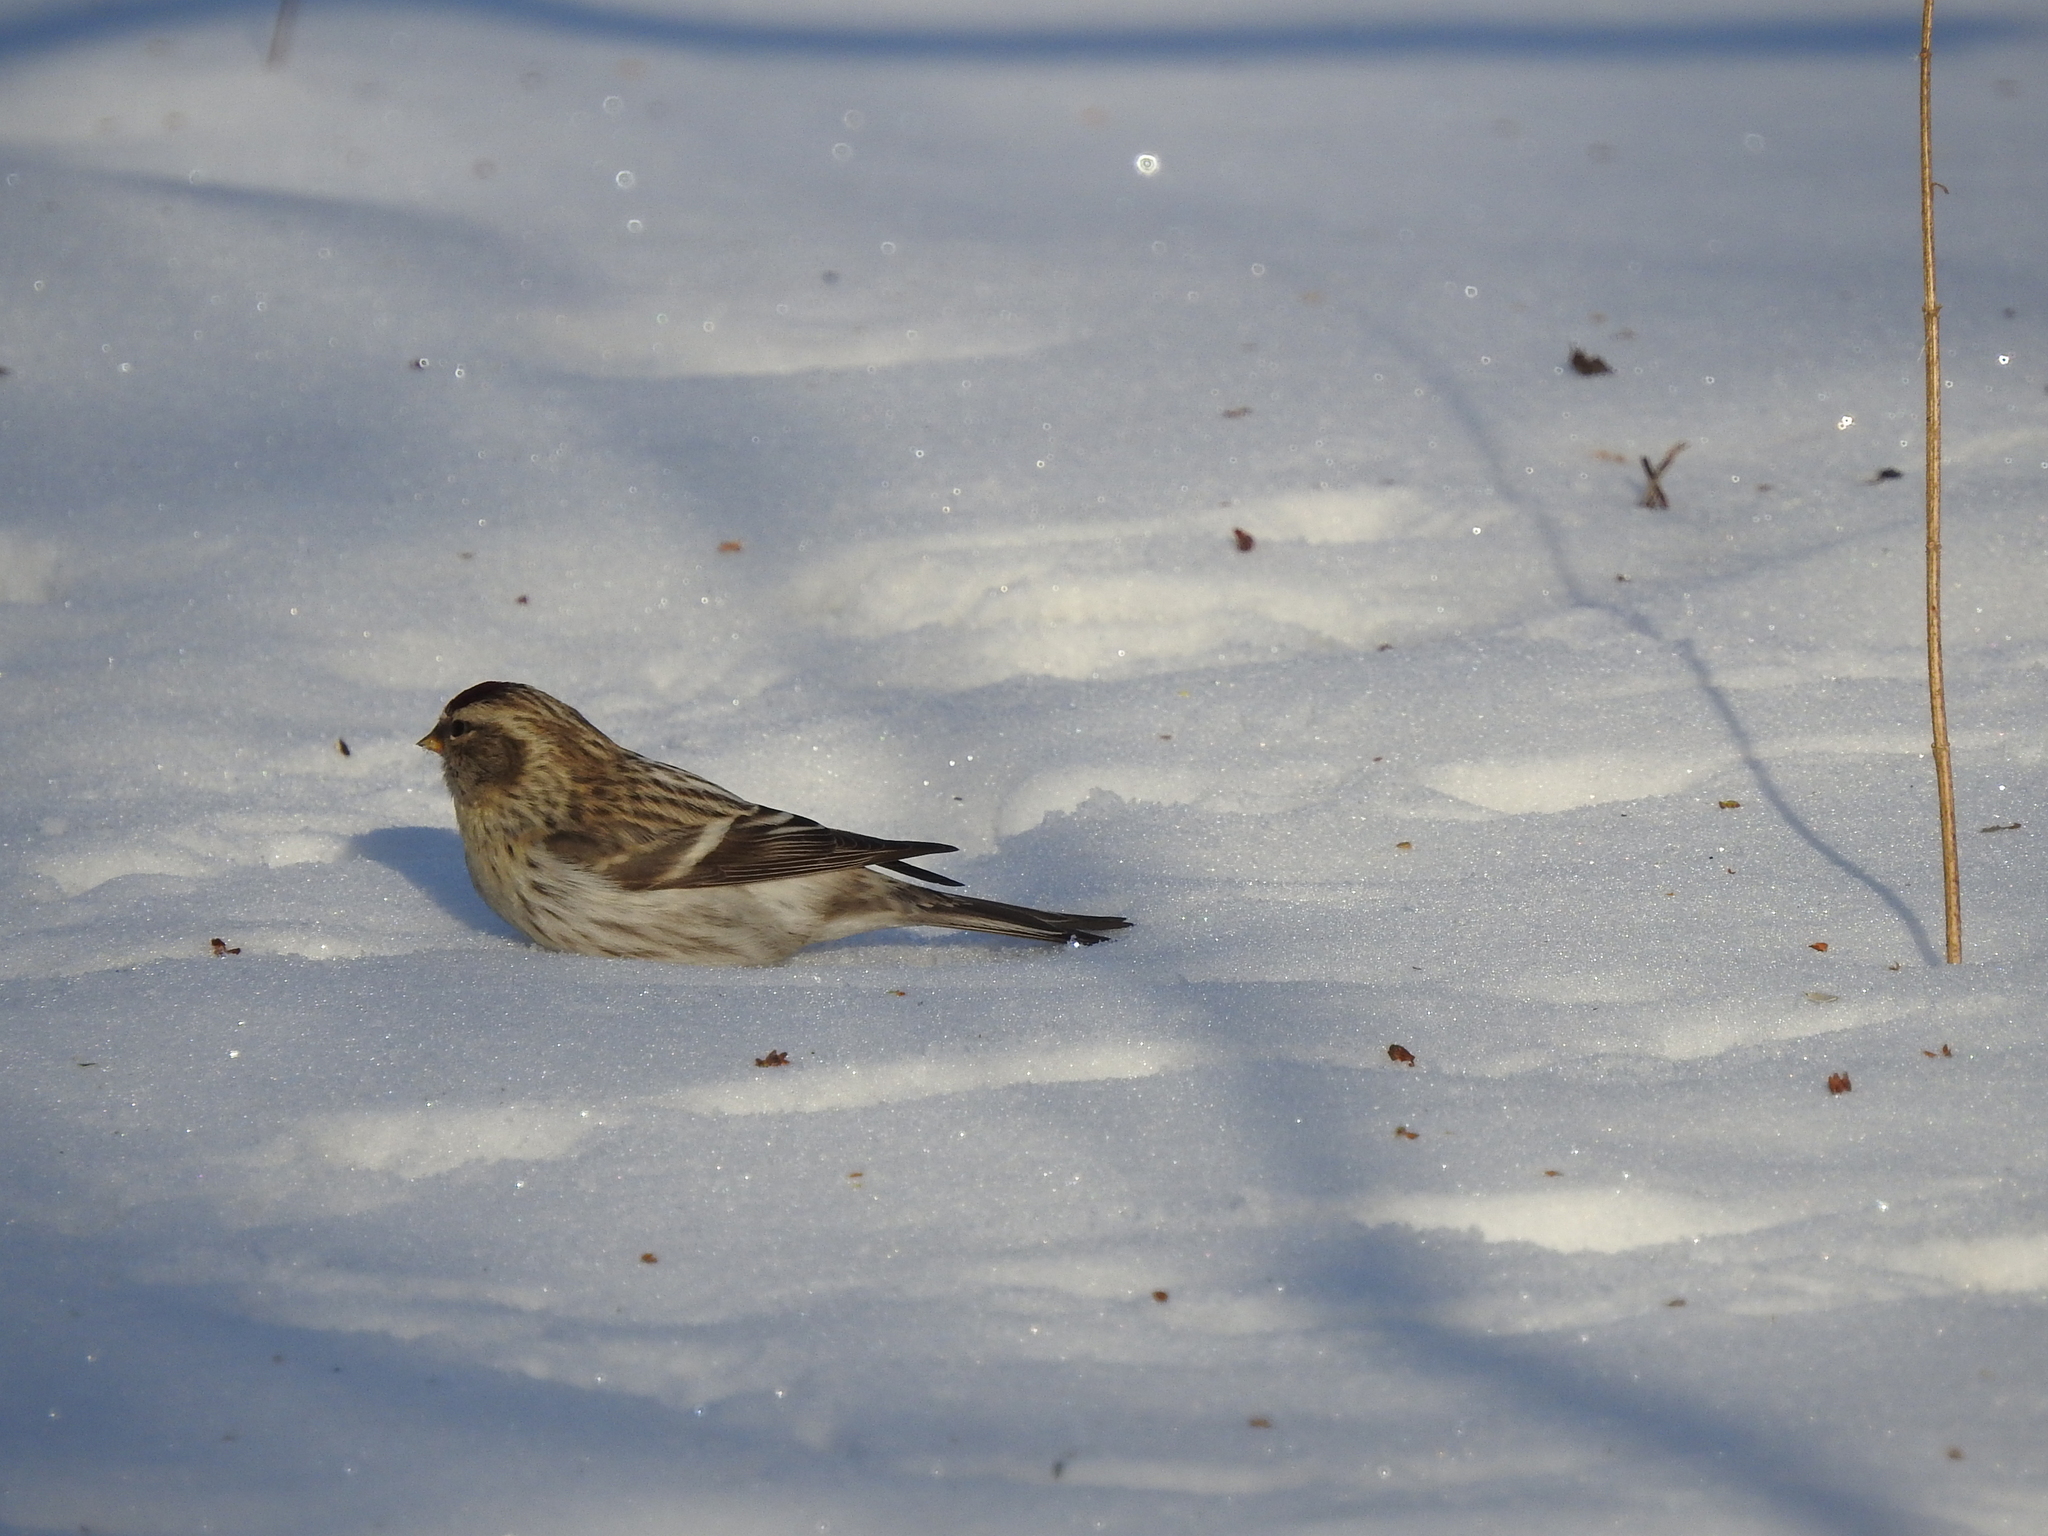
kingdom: Animalia
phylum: Chordata
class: Aves
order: Passeriformes
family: Fringillidae
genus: Acanthis
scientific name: Acanthis flammea
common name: Common redpoll
